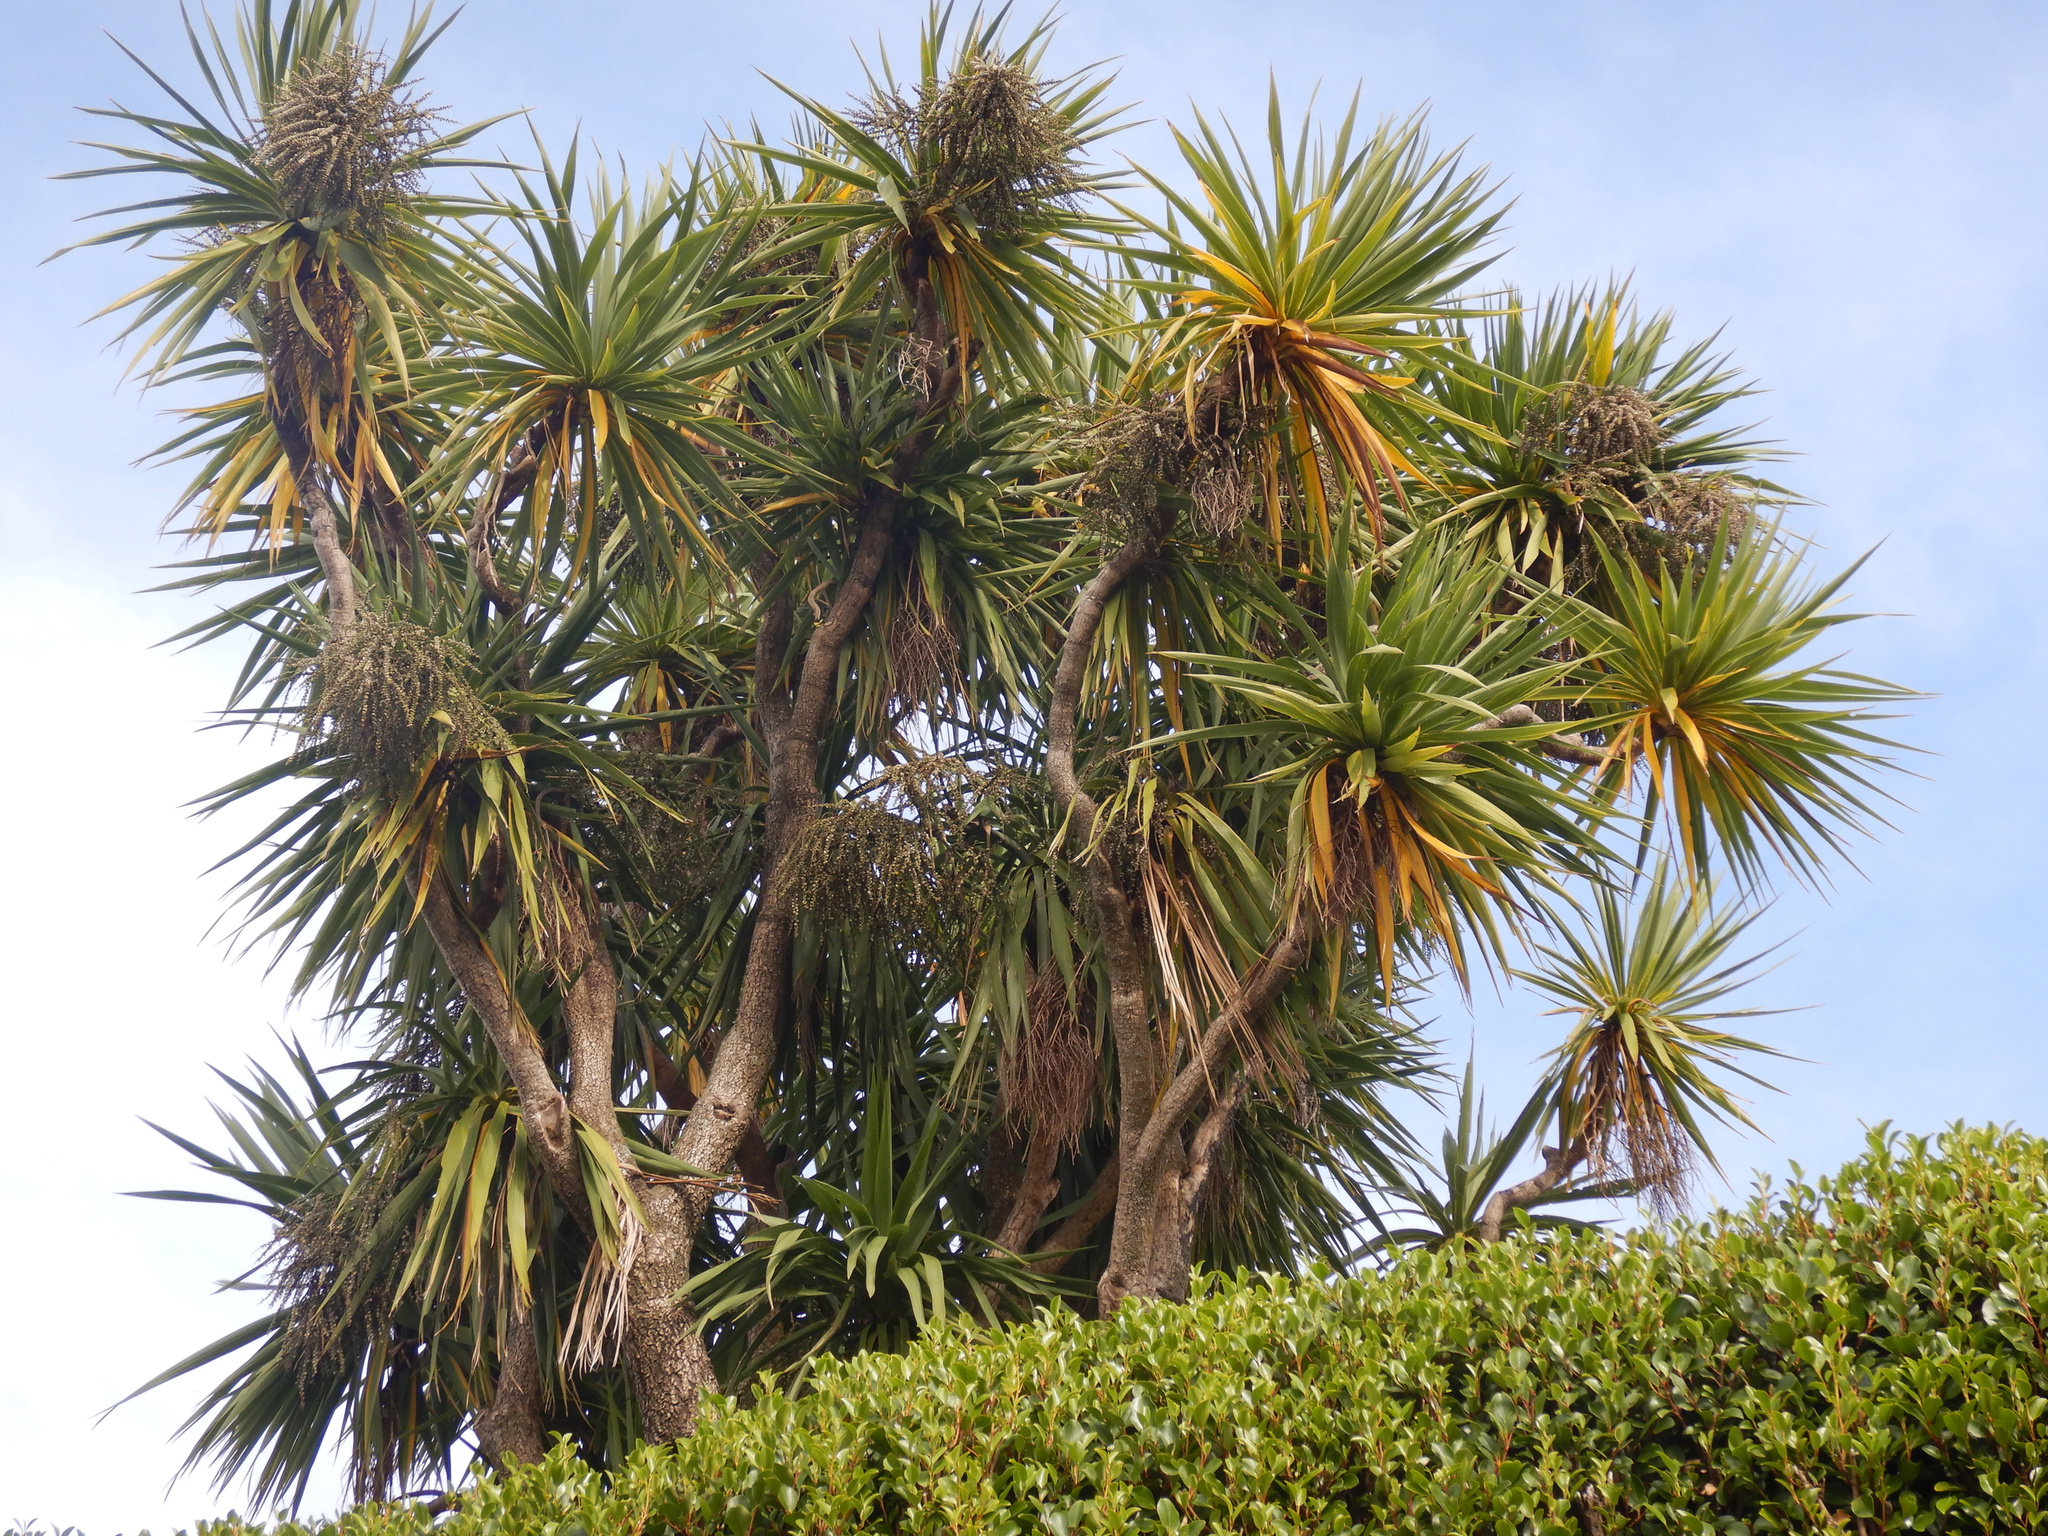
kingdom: Plantae
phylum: Tracheophyta
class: Liliopsida
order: Asparagales
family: Asparagaceae
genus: Cordyline
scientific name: Cordyline australis
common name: Cabbage-palm
